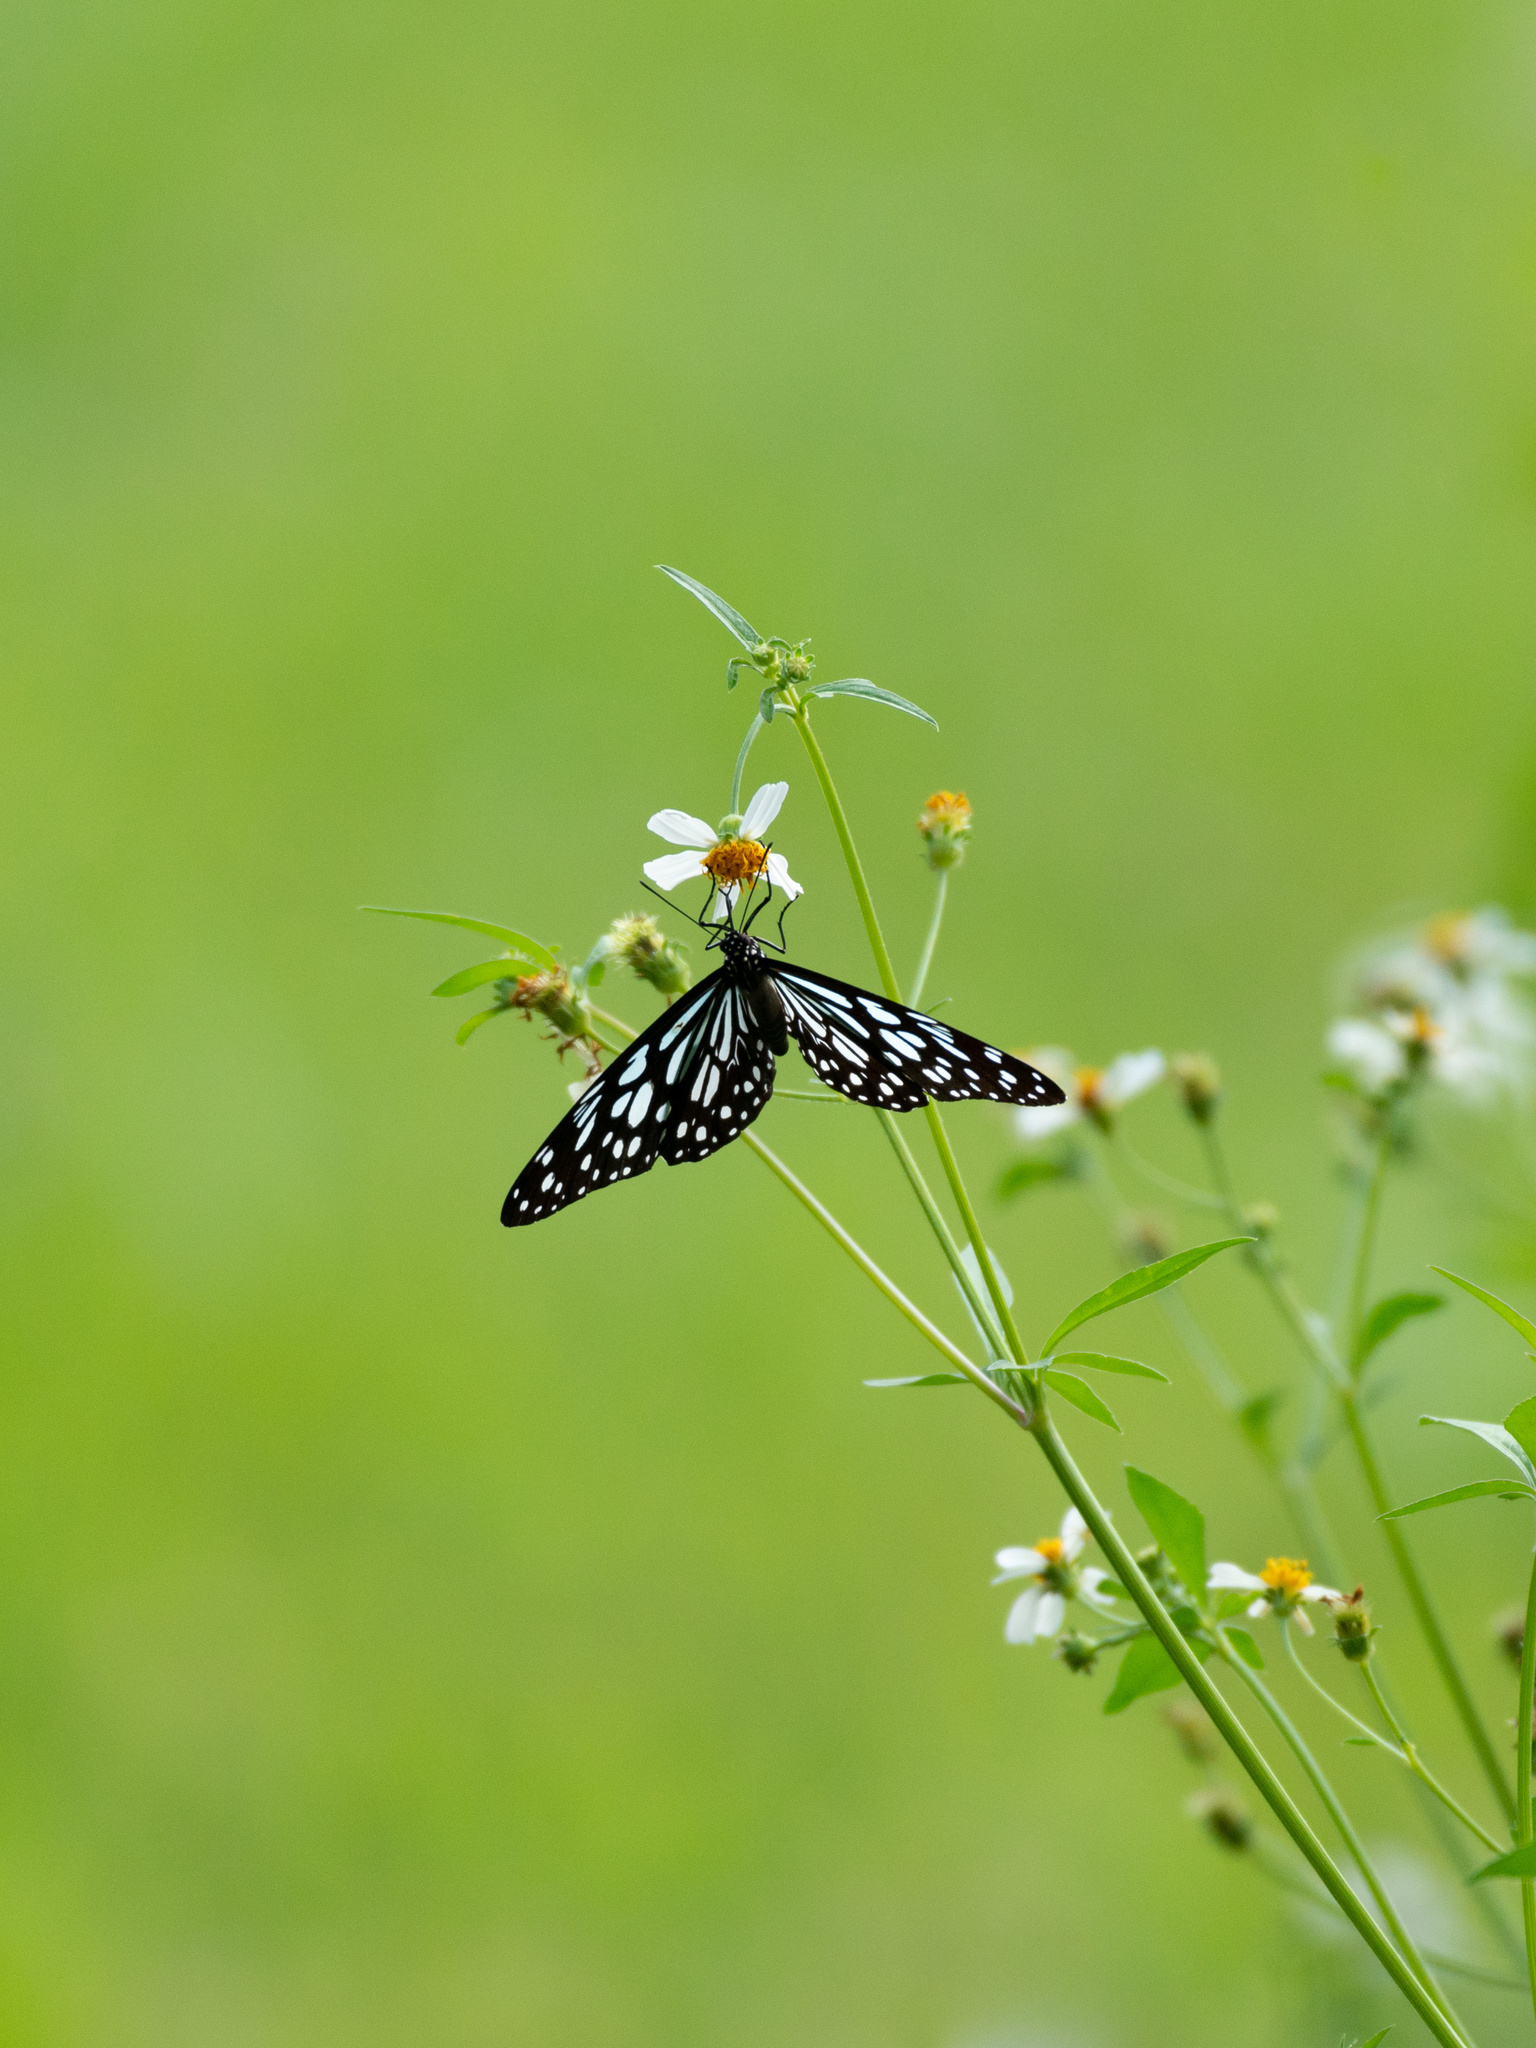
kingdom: Animalia
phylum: Arthropoda
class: Insecta
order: Lepidoptera
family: Nymphalidae
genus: Tirumala
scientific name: Tirumala limniace
